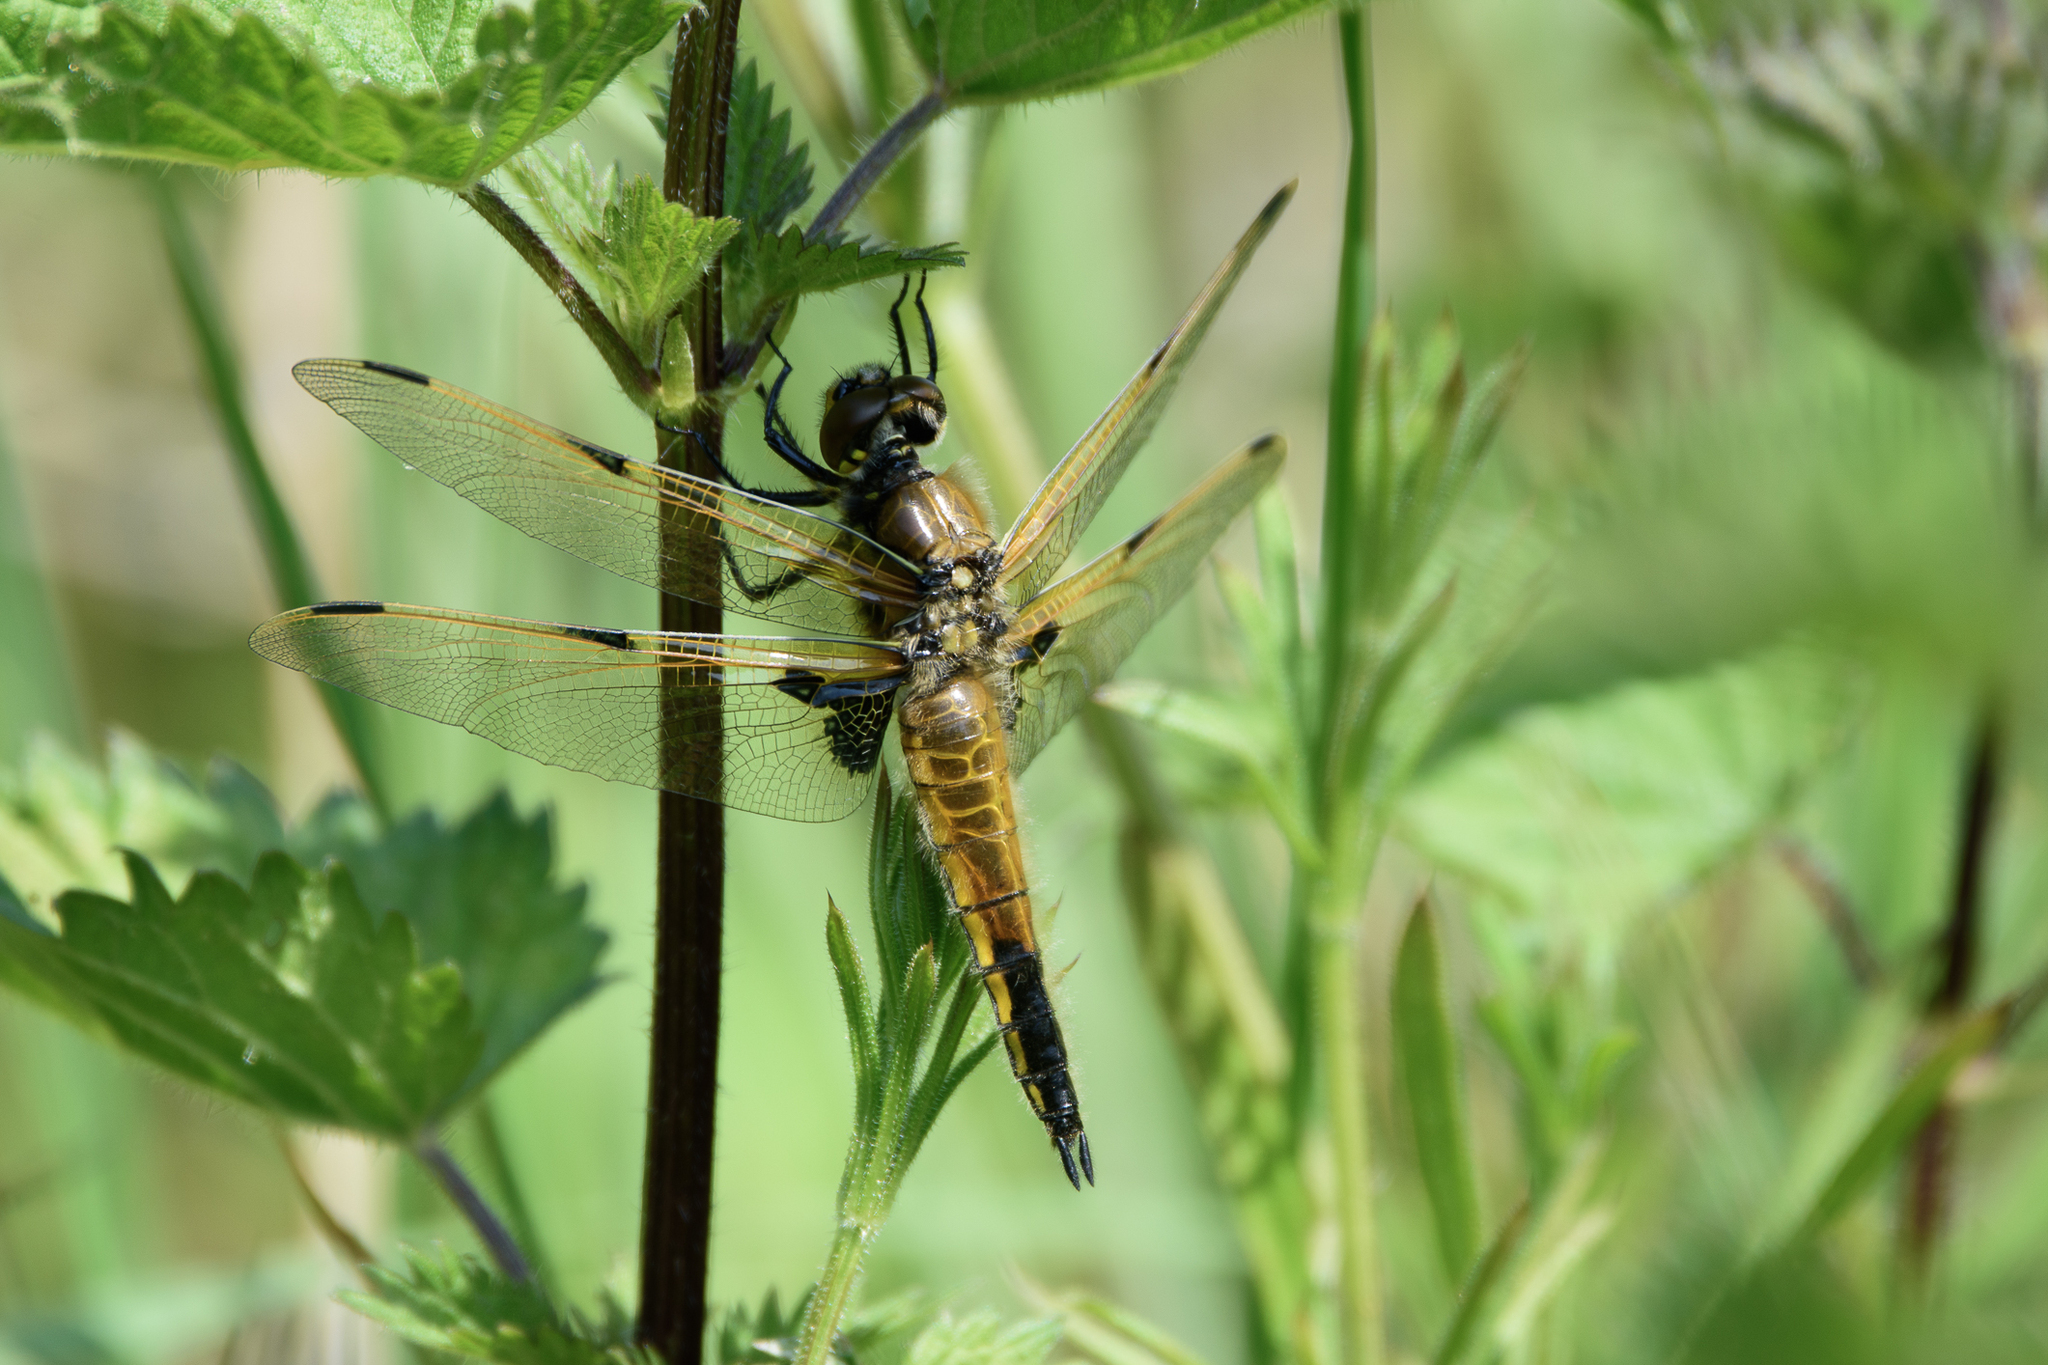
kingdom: Animalia
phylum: Arthropoda
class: Insecta
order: Odonata
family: Libellulidae
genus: Libellula
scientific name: Libellula quadrimaculata
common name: Four-spotted chaser
